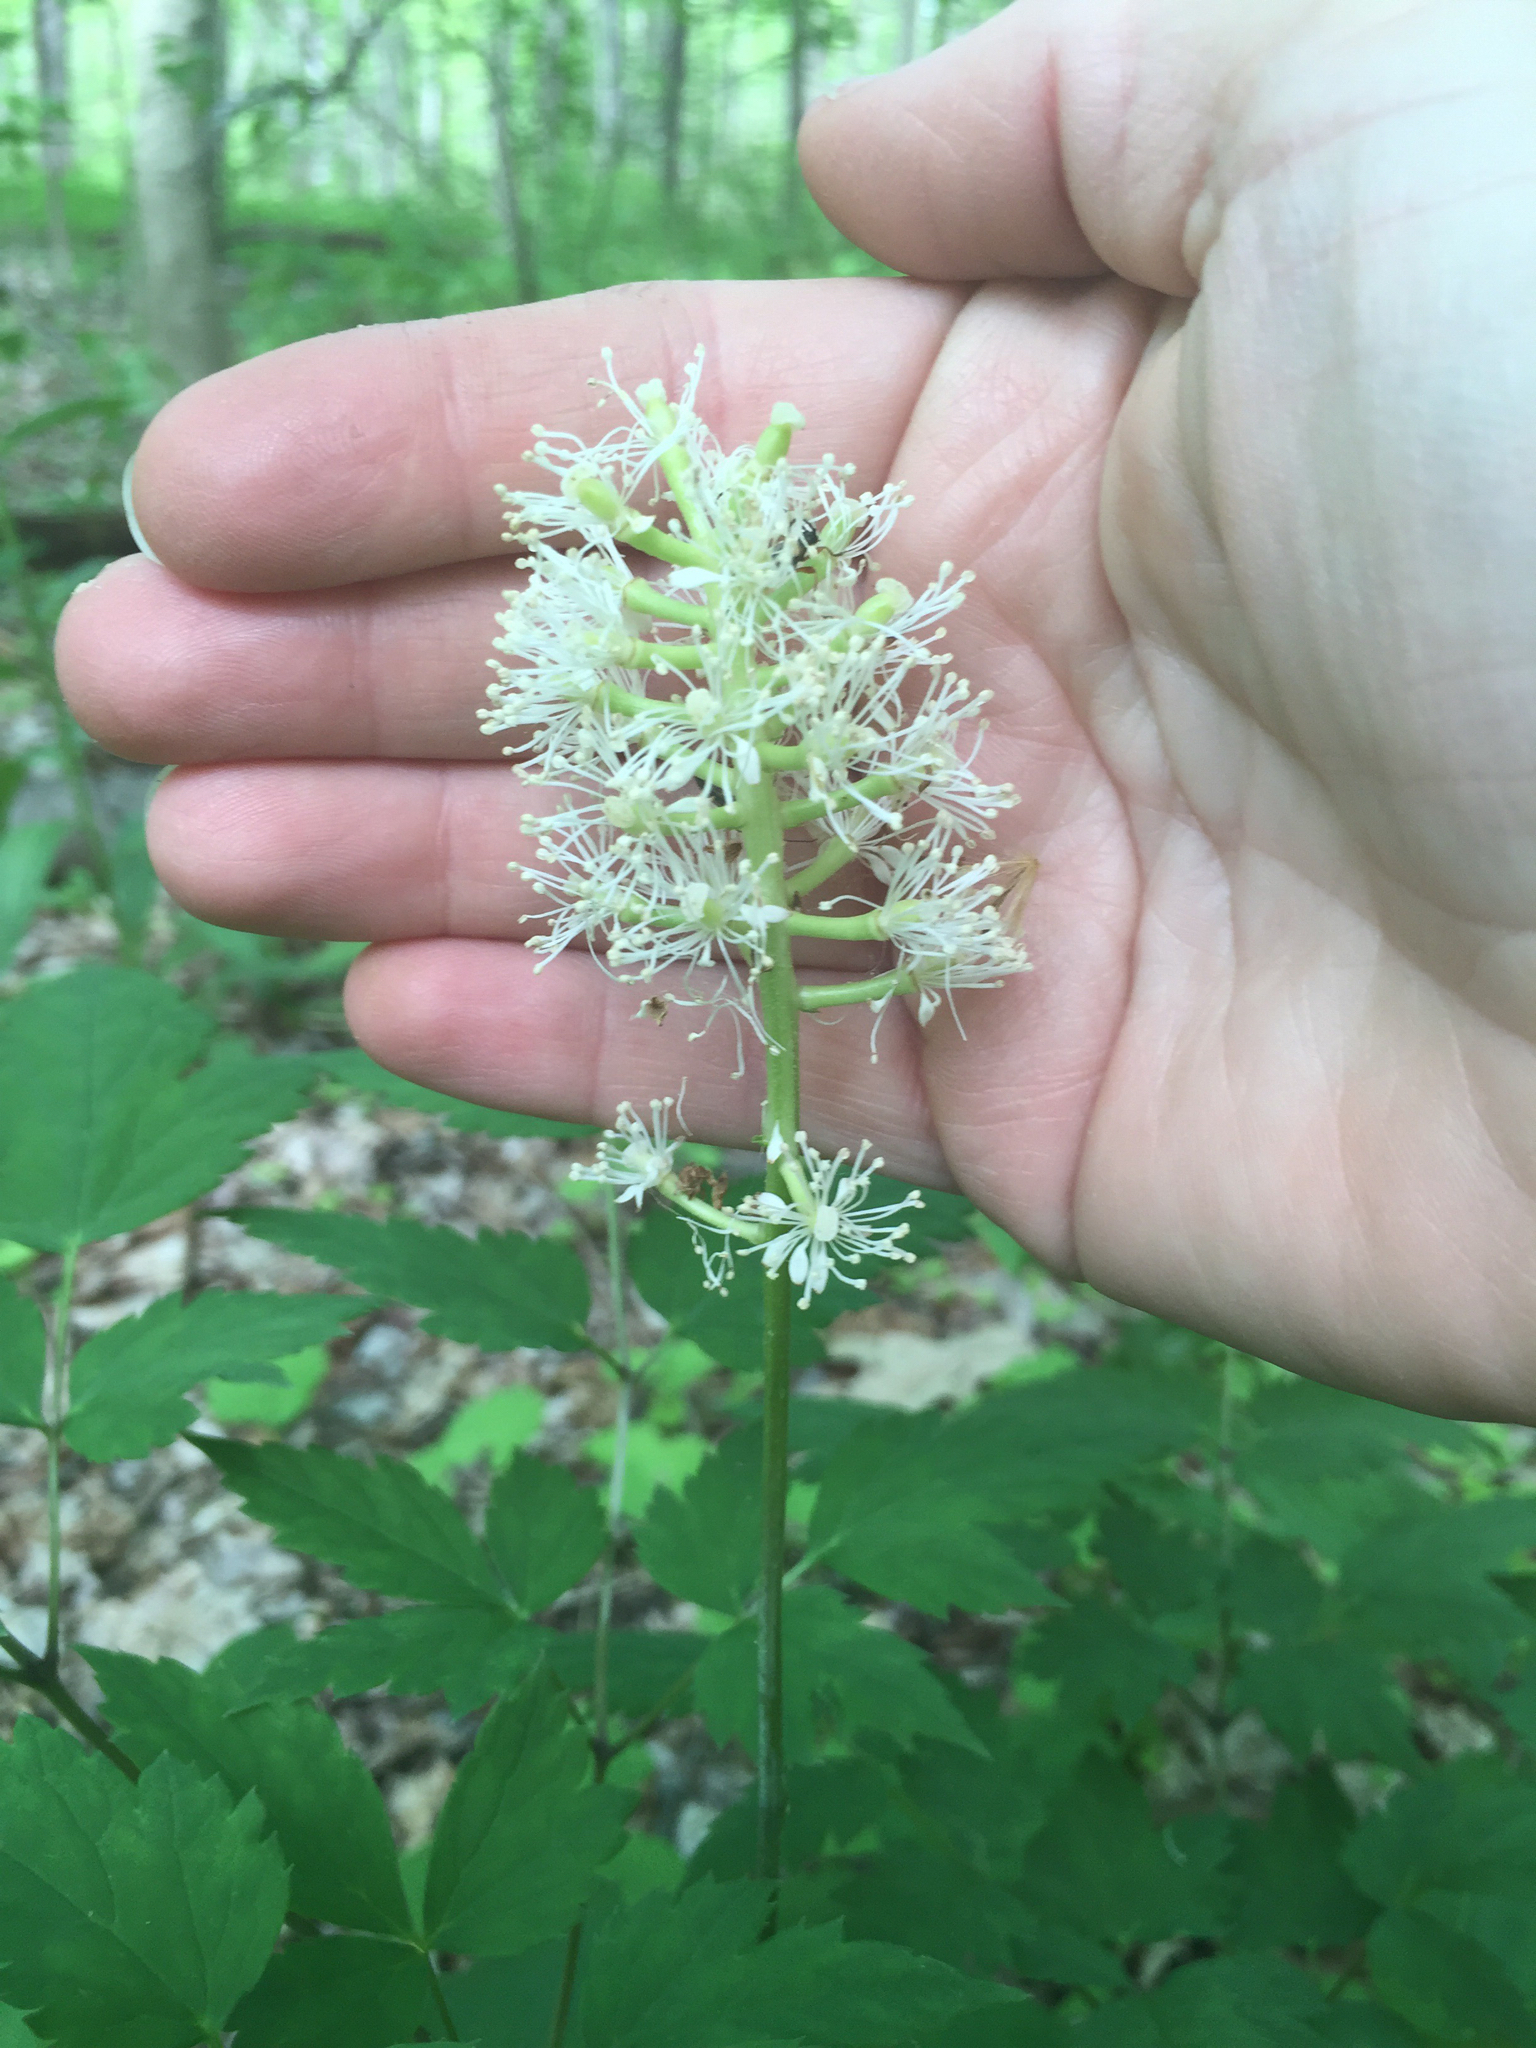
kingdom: Plantae
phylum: Tracheophyta
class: Magnoliopsida
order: Ranunculales
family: Ranunculaceae
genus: Actaea
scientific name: Actaea pachypoda
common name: Doll's-eyes
